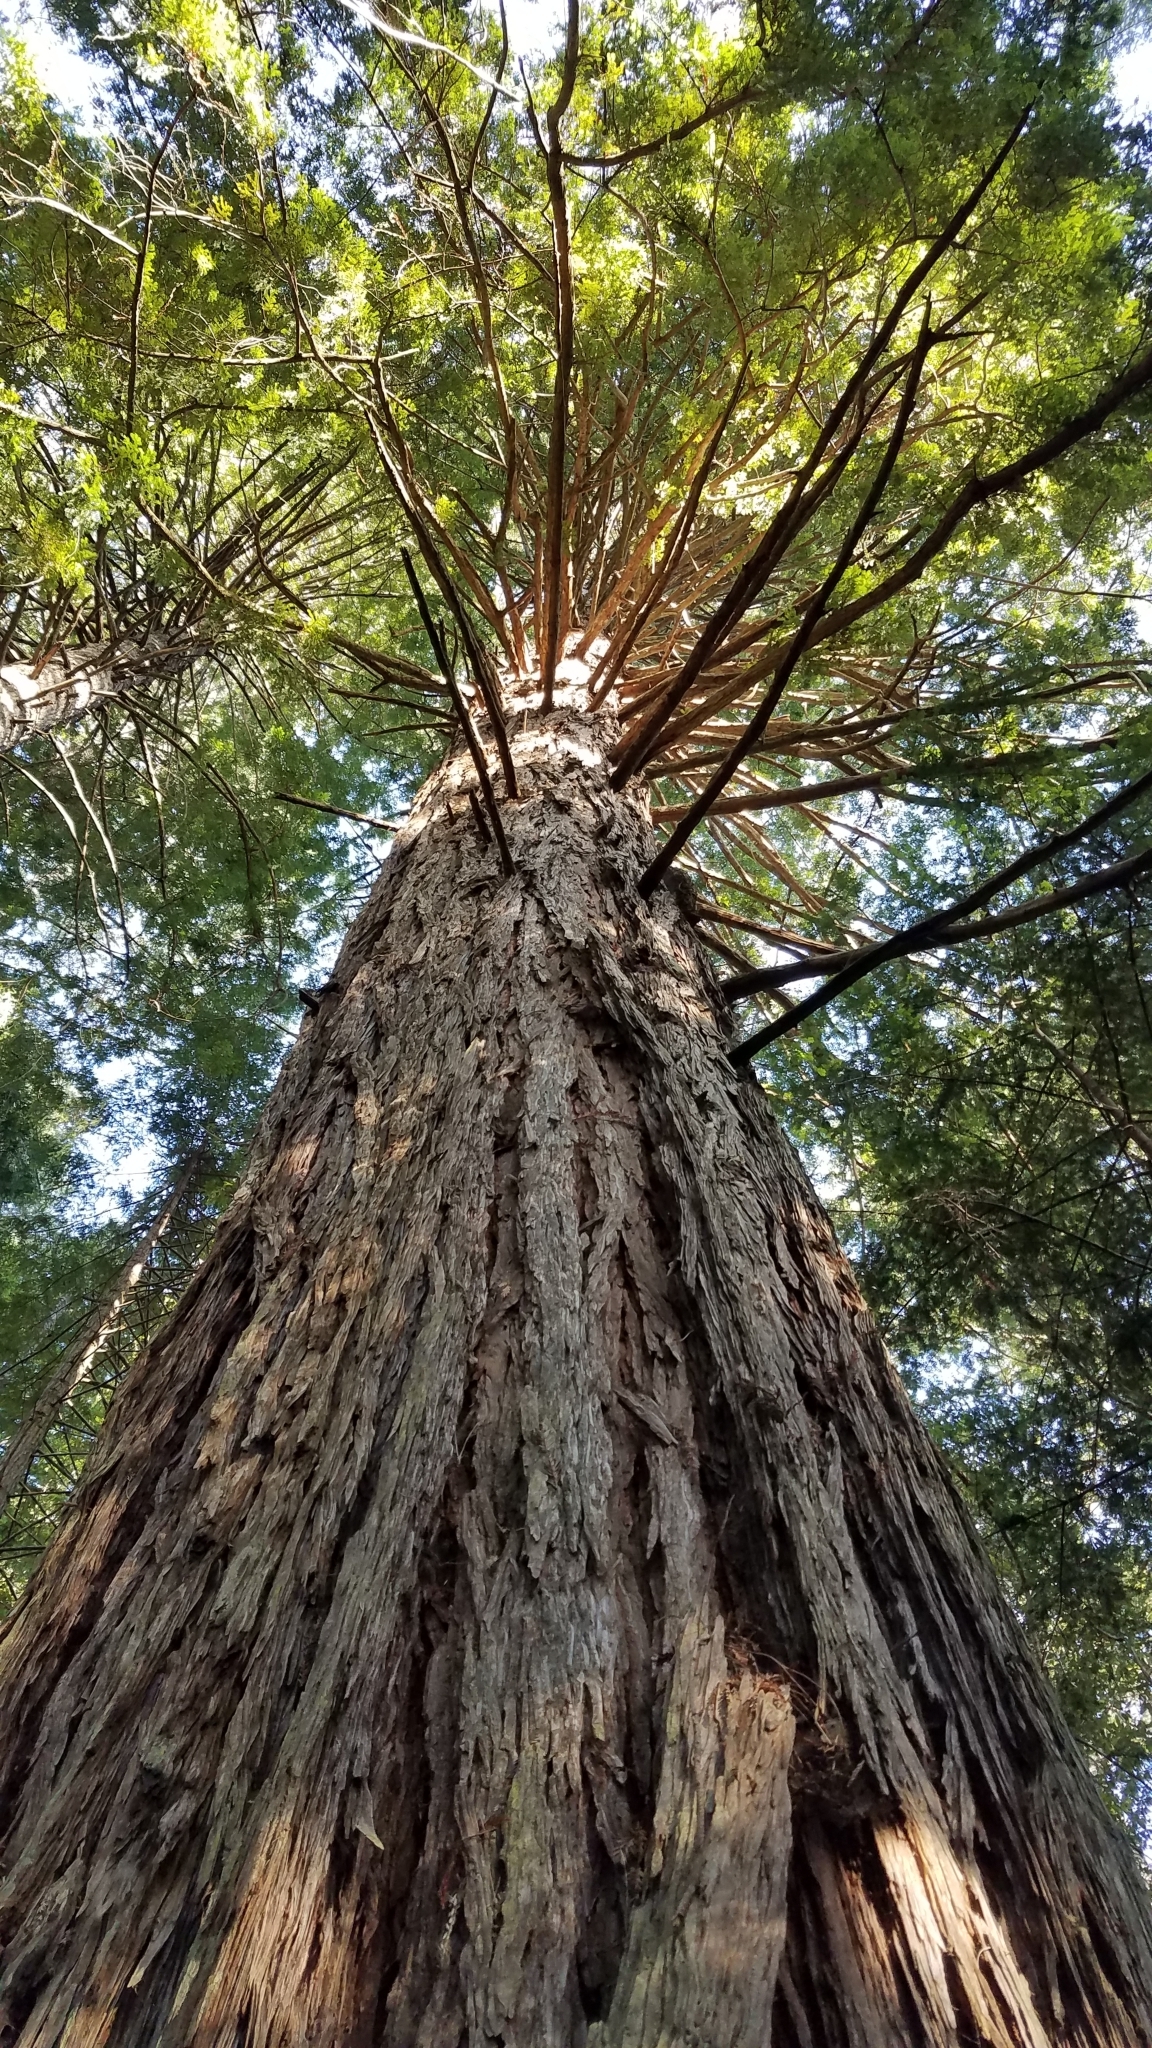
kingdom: Plantae
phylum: Tracheophyta
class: Pinopsida
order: Pinales
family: Cupressaceae
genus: Sequoia
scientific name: Sequoia sempervirens
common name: Coast redwood
